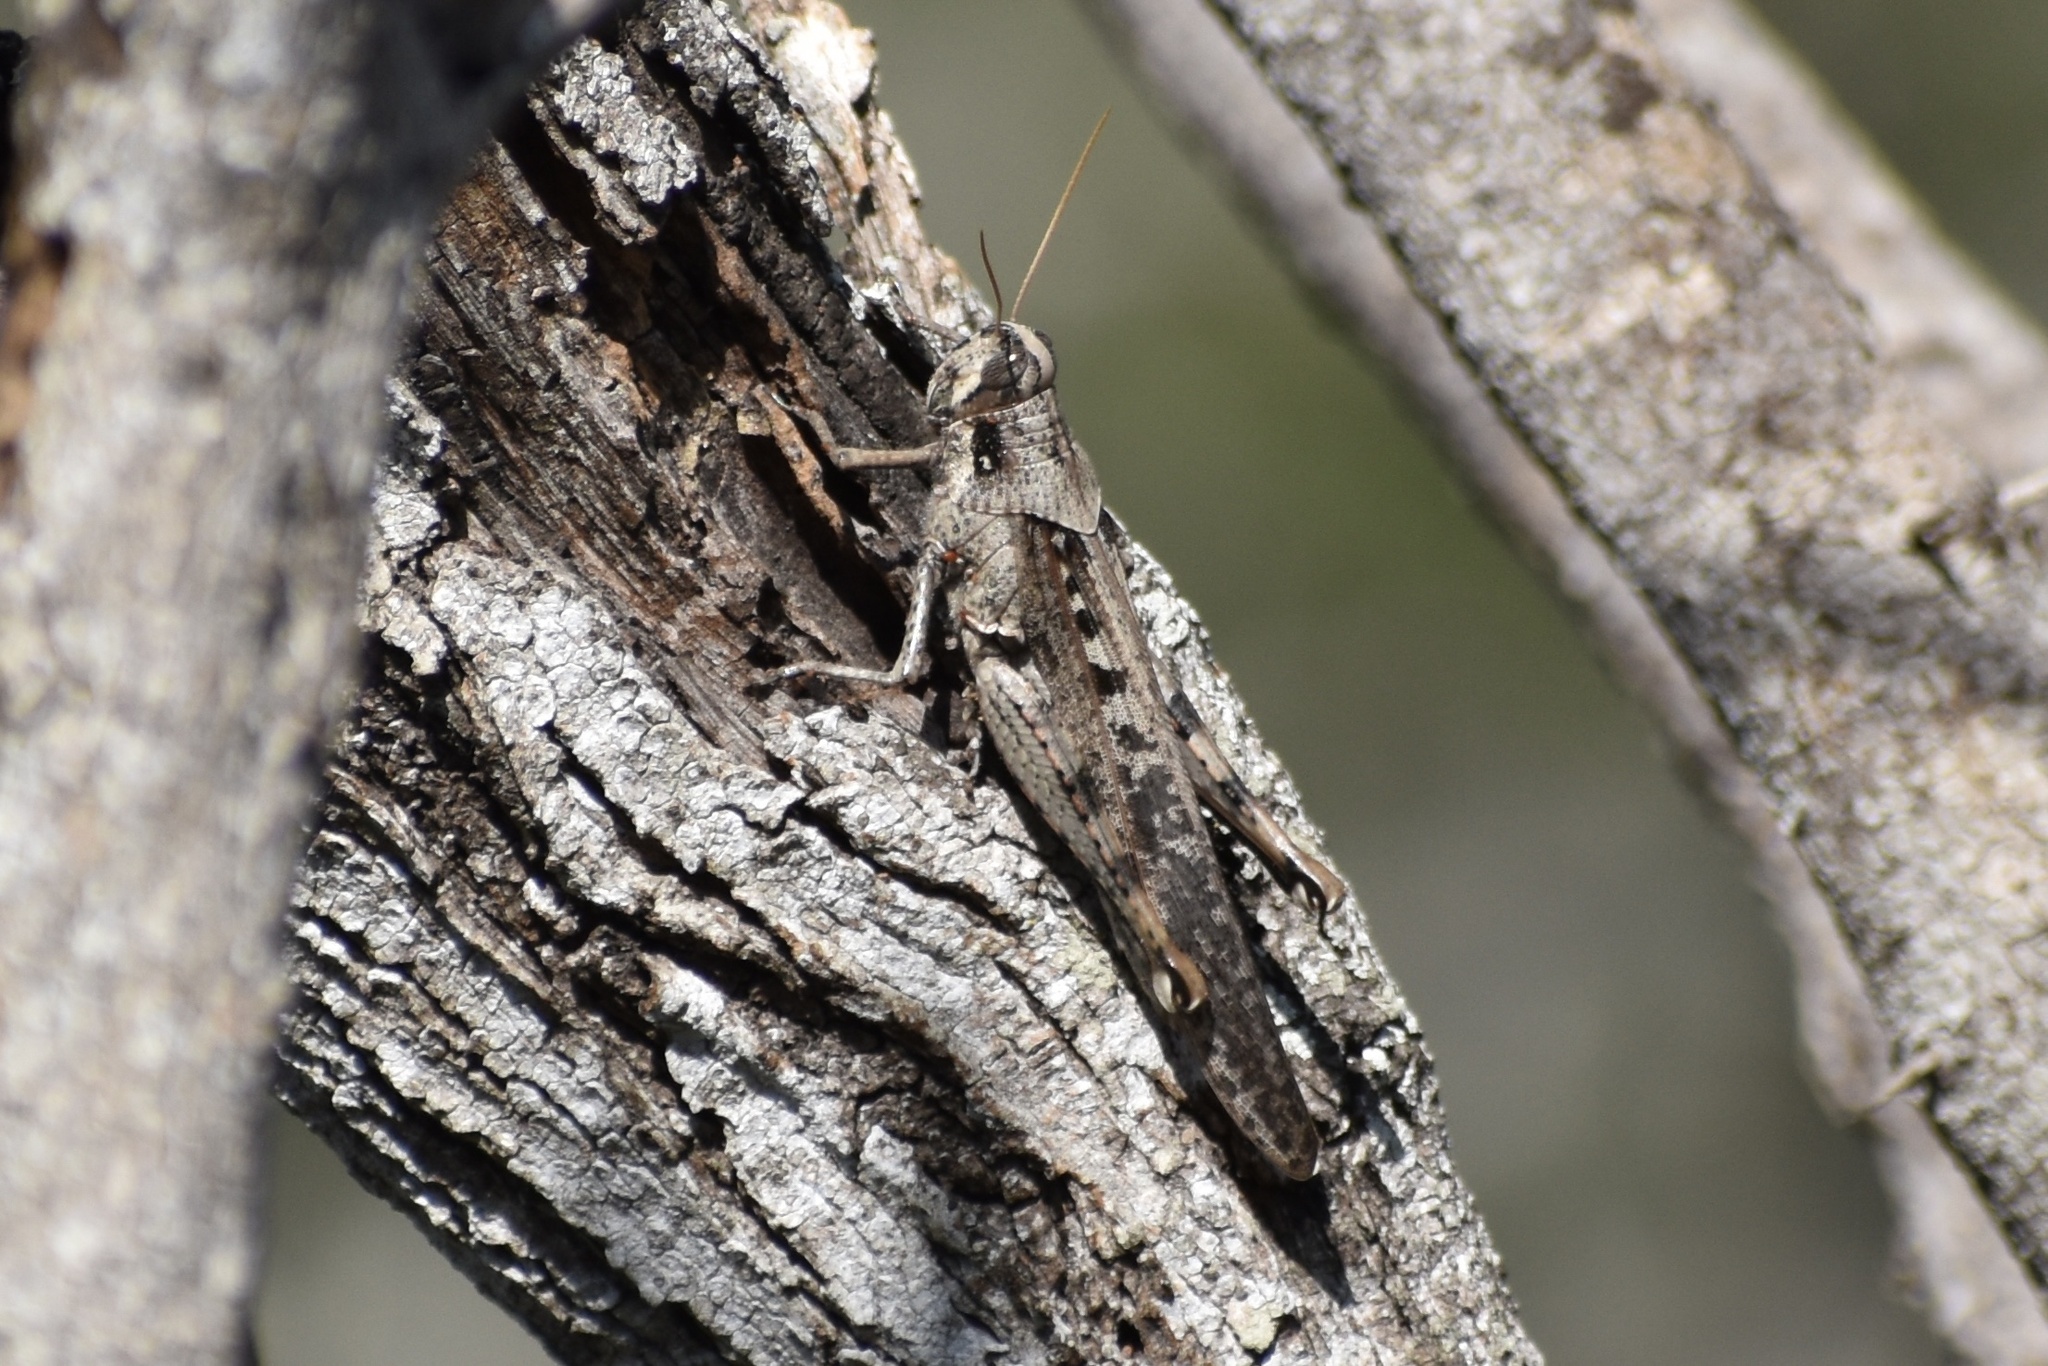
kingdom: Animalia
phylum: Arthropoda
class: Insecta
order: Orthoptera
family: Acrididae
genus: Schistocerca
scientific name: Schistocerca nitens
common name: Vagrant grasshopper
